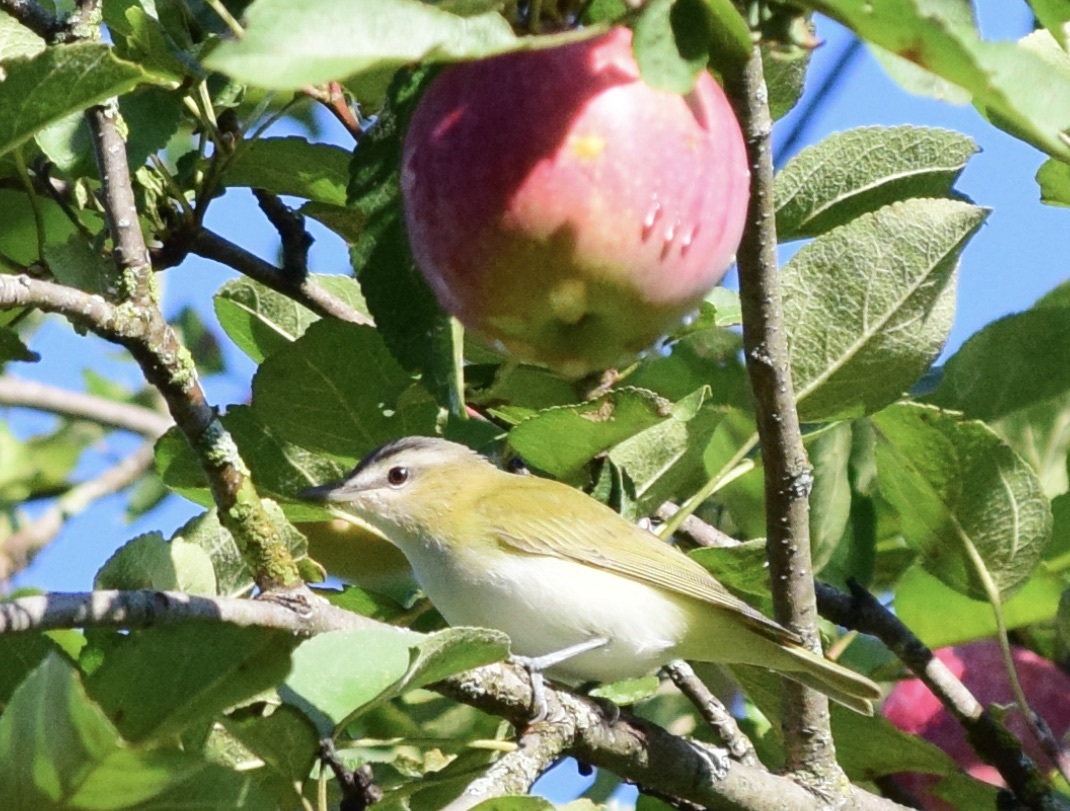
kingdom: Animalia
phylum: Chordata
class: Aves
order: Passeriformes
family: Vireonidae
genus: Vireo
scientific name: Vireo olivaceus
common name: Red-eyed vireo
